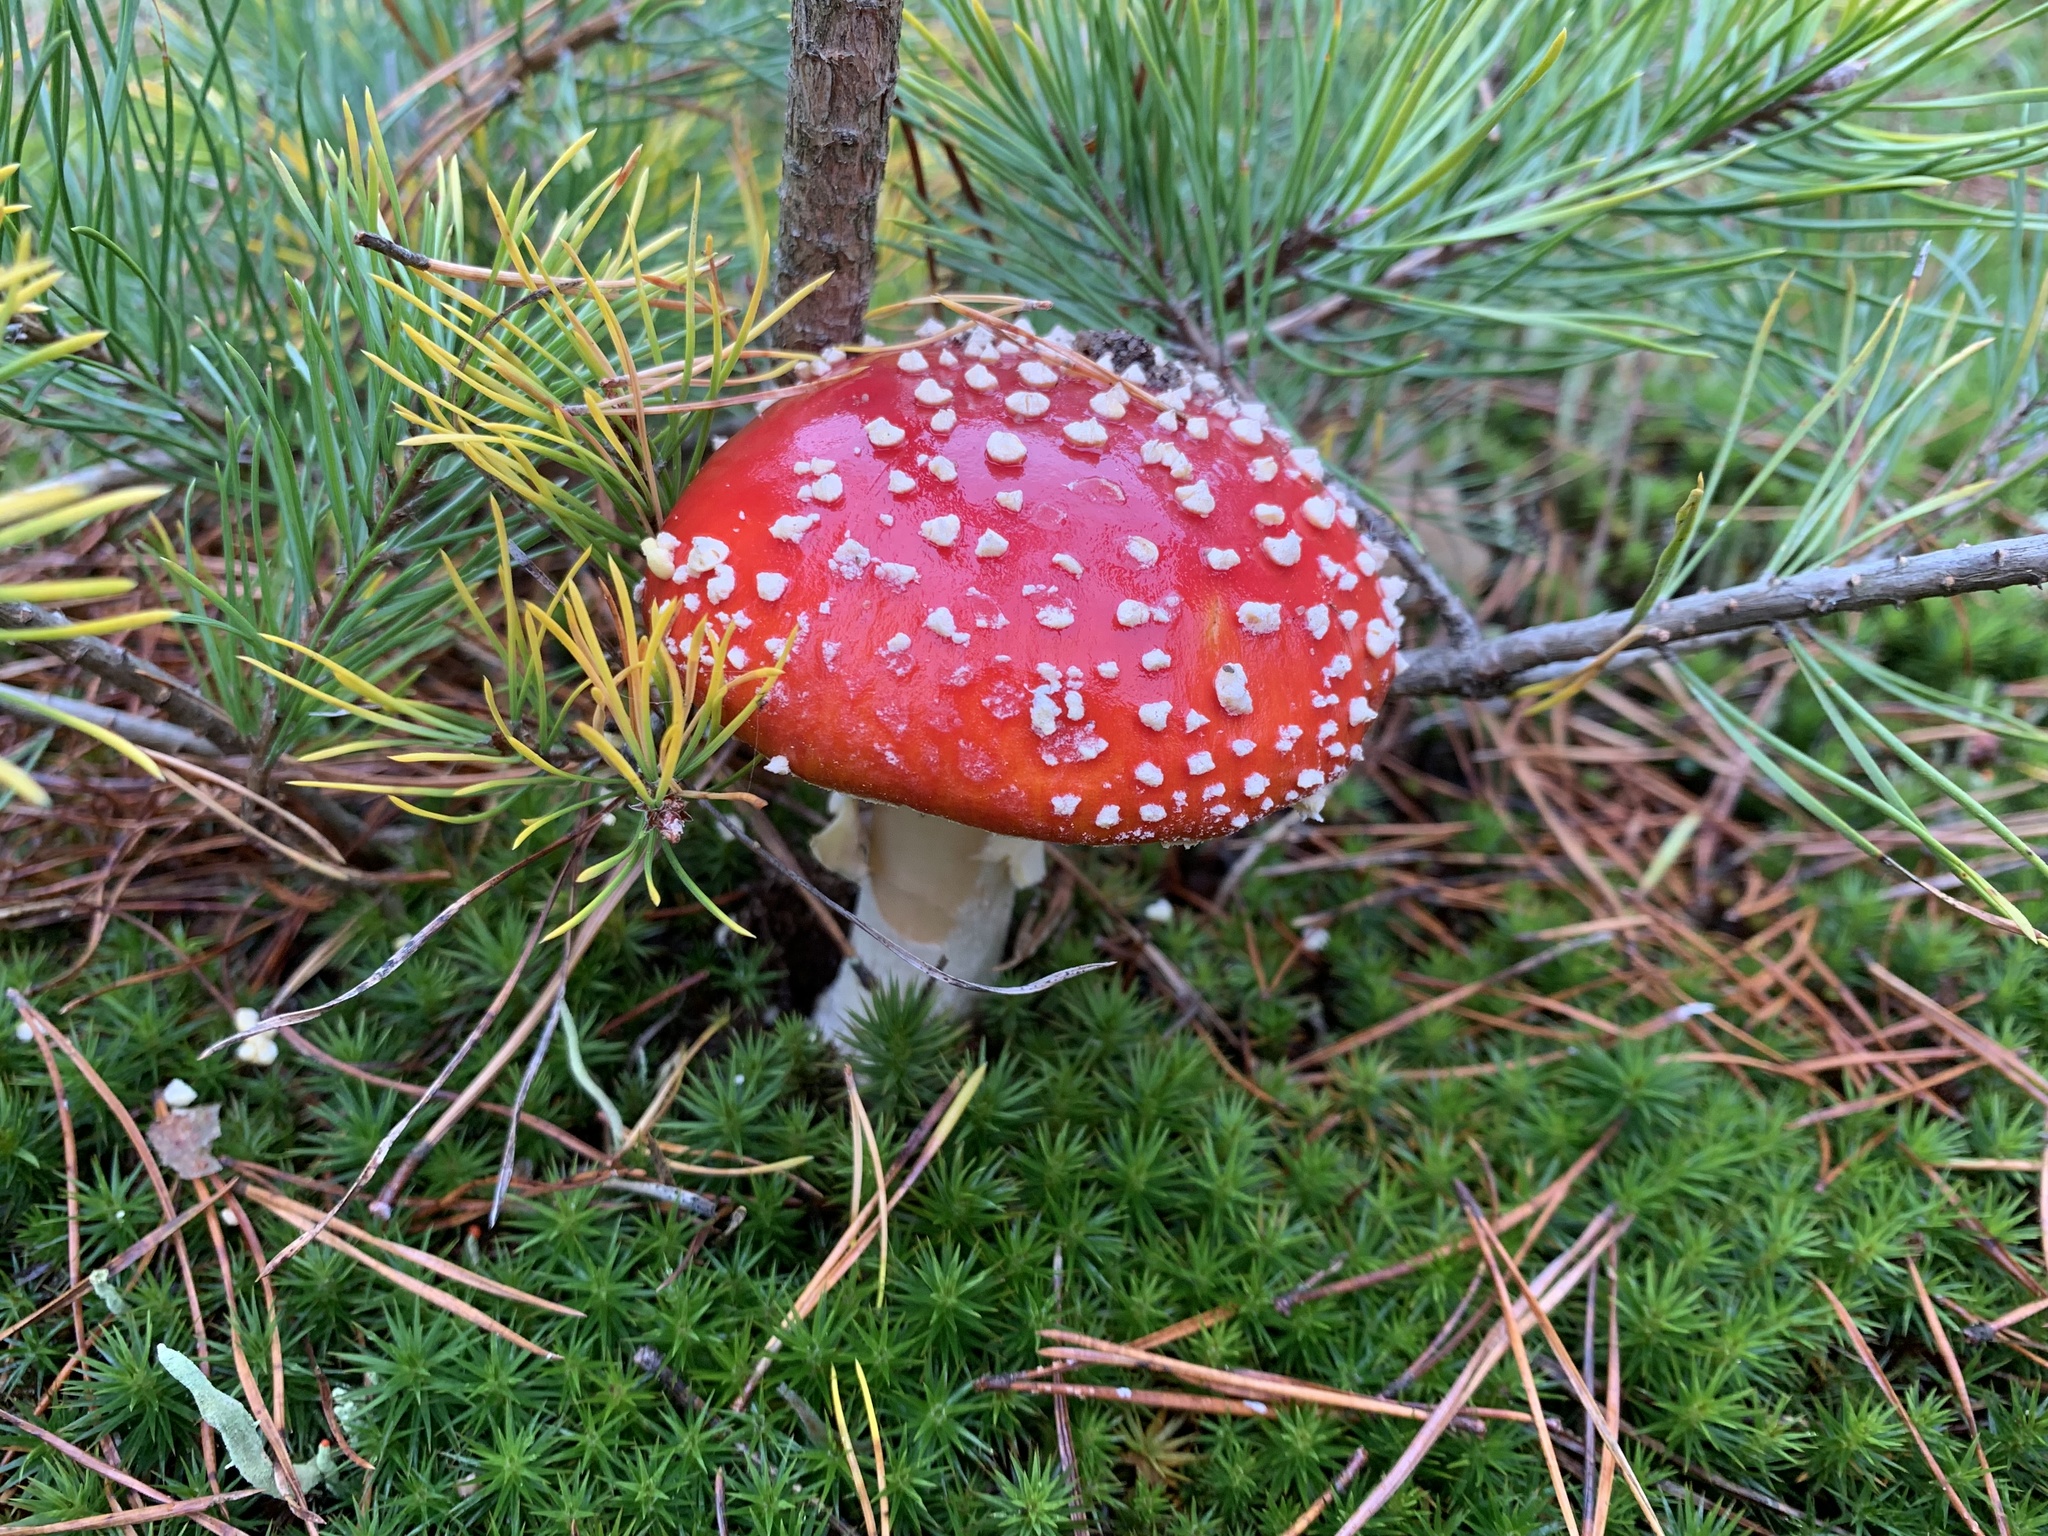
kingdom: Fungi
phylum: Basidiomycota
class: Agaricomycetes
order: Agaricales
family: Amanitaceae
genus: Amanita
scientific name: Amanita muscaria
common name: Fly agaric
